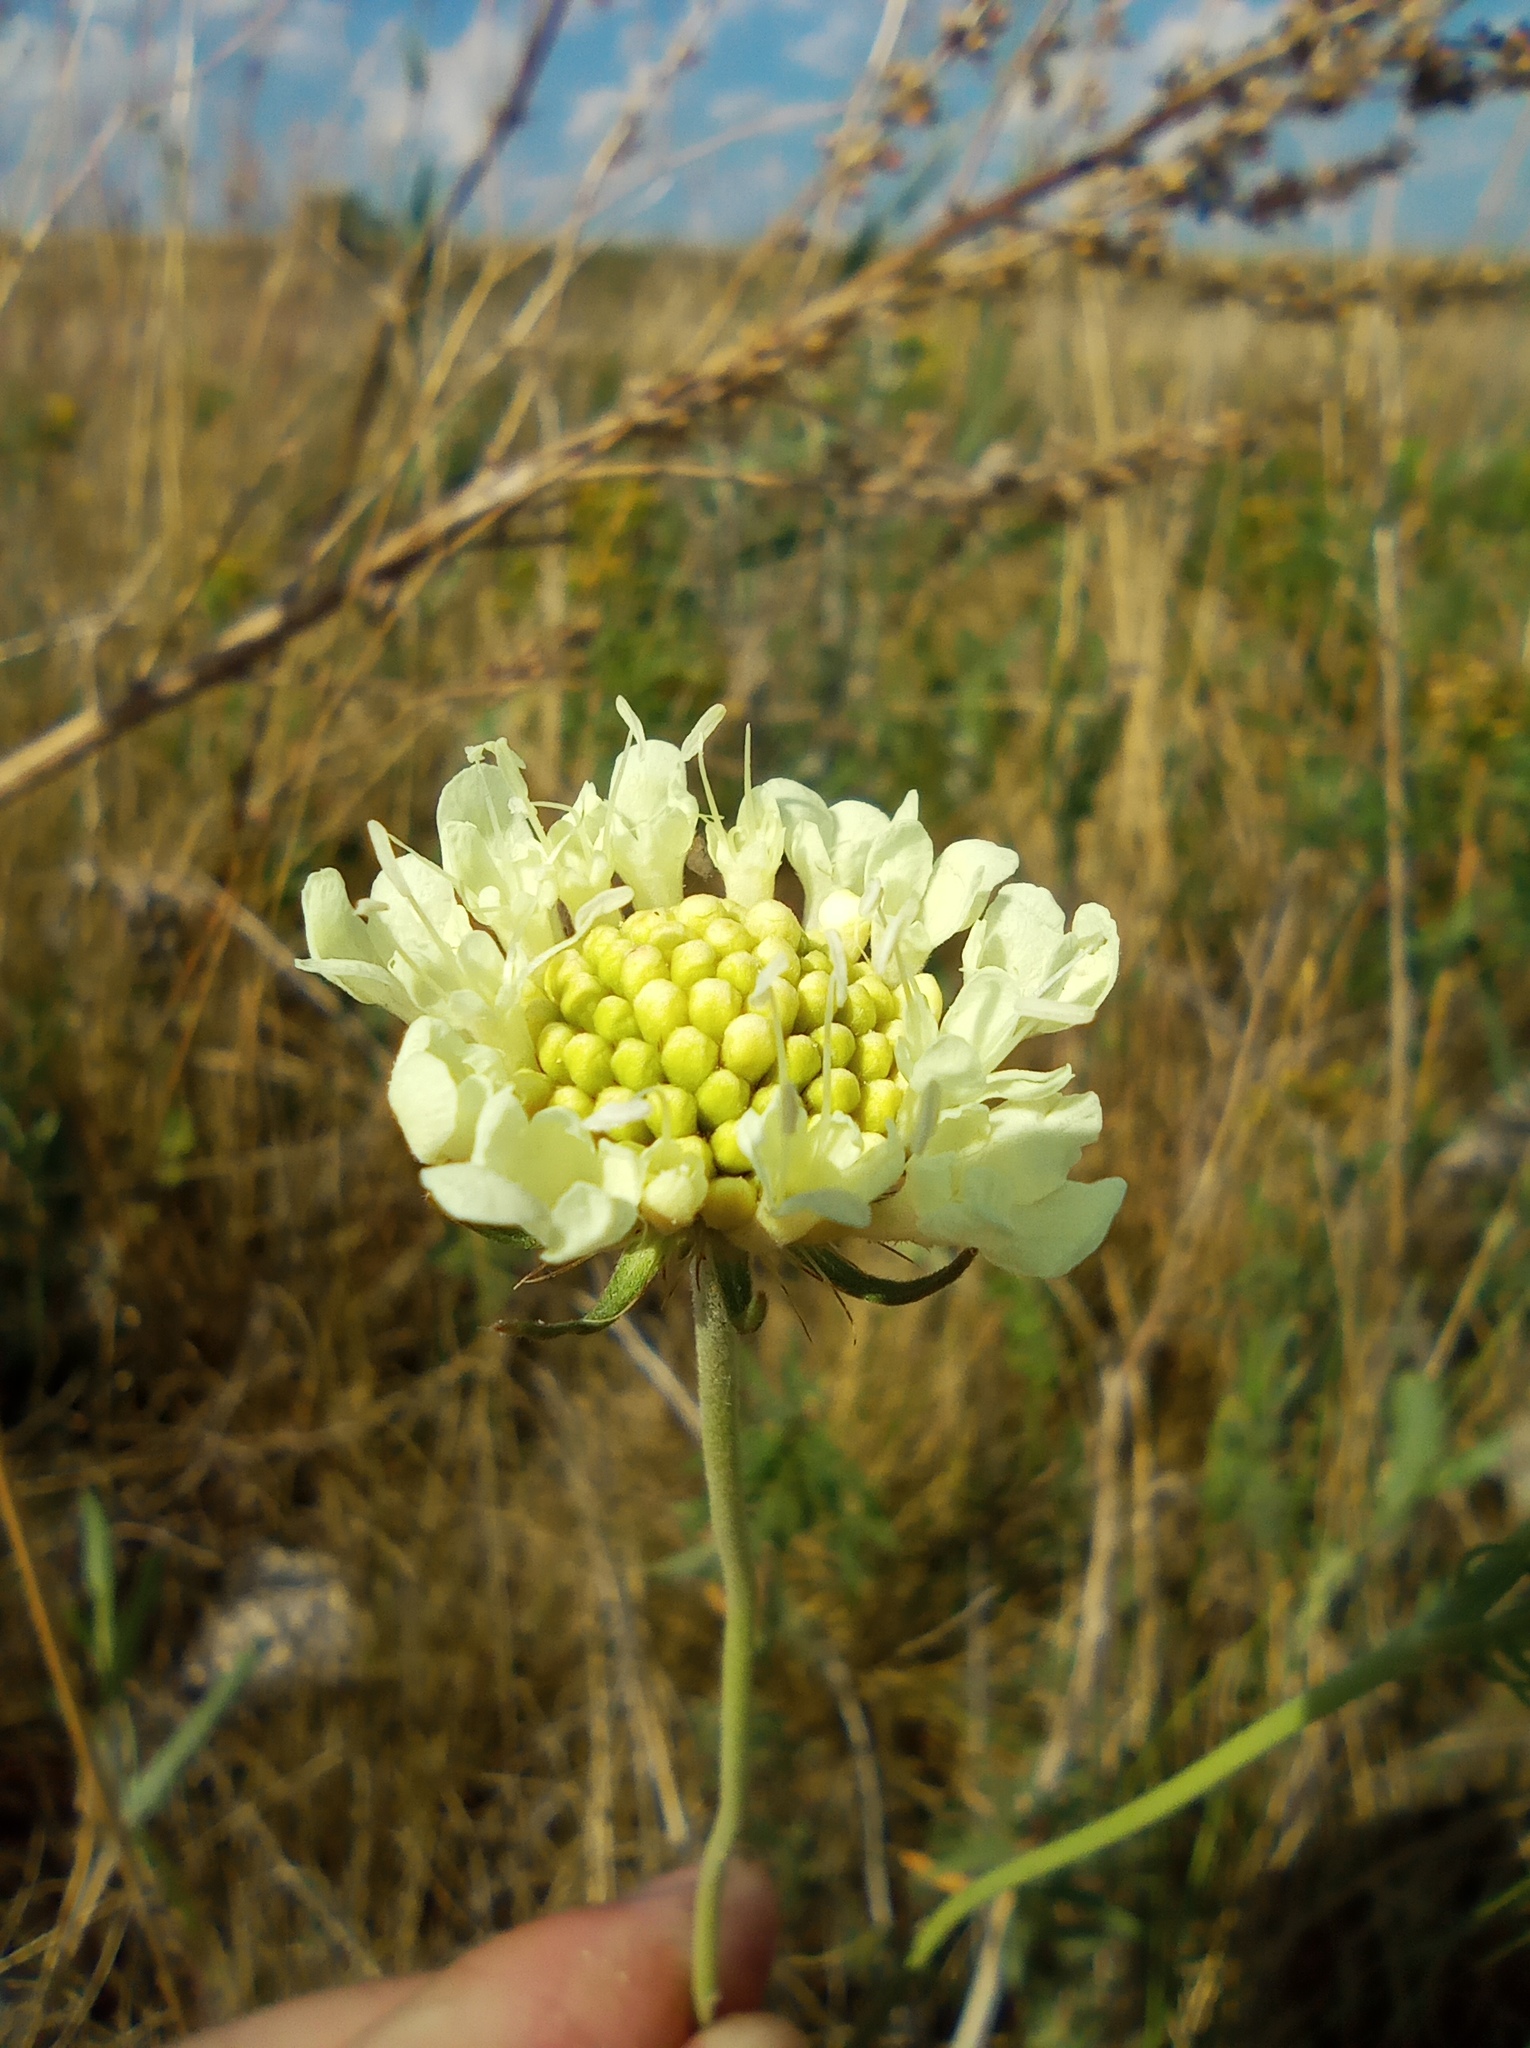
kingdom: Plantae
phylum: Tracheophyta
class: Magnoliopsida
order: Dipsacales
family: Caprifoliaceae
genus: Scabiosa
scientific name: Scabiosa ochroleuca
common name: Cream pincushions
